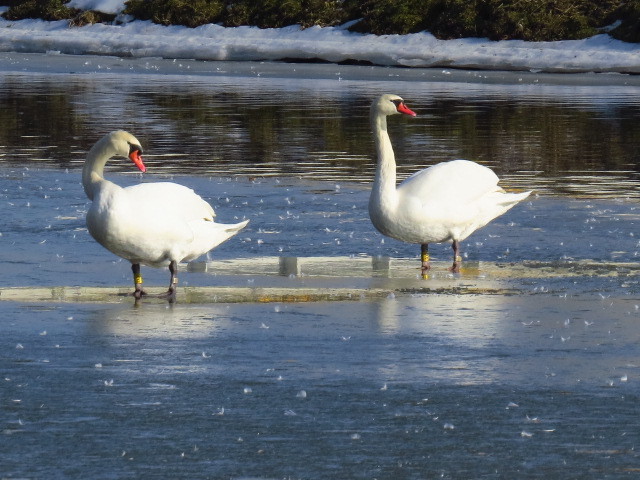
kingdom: Animalia
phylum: Chordata
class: Aves
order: Anseriformes
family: Anatidae
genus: Cygnus
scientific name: Cygnus olor
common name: Mute swan
